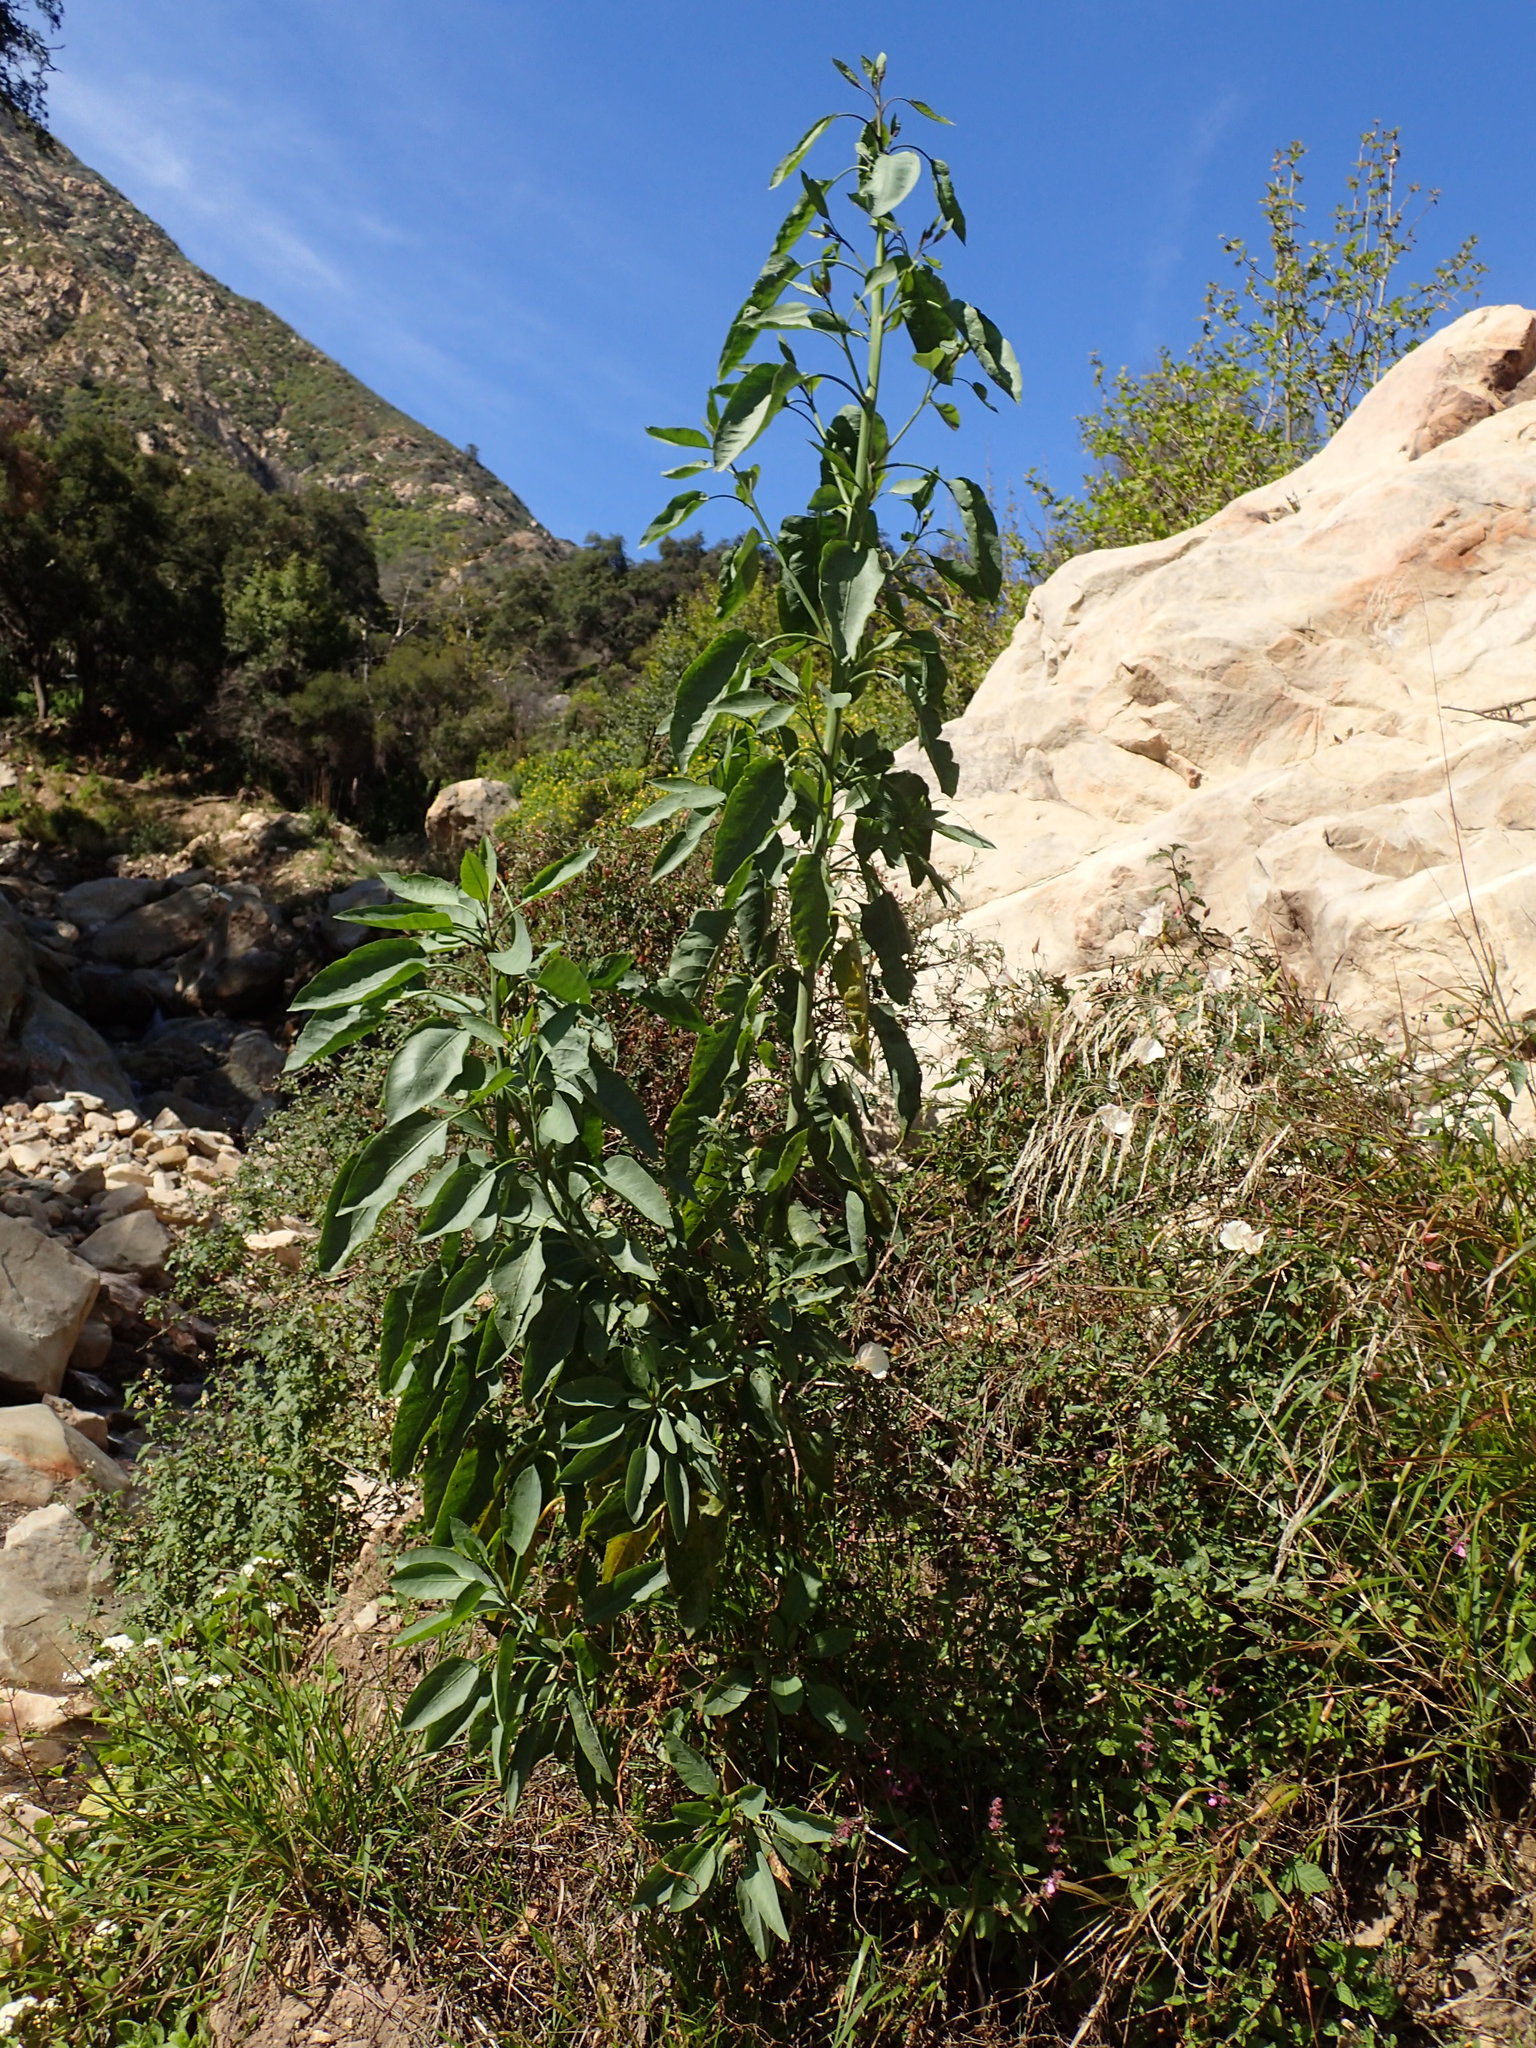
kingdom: Plantae
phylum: Tracheophyta
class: Magnoliopsida
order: Solanales
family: Solanaceae
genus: Nicotiana
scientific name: Nicotiana glauca
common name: Tree tobacco
